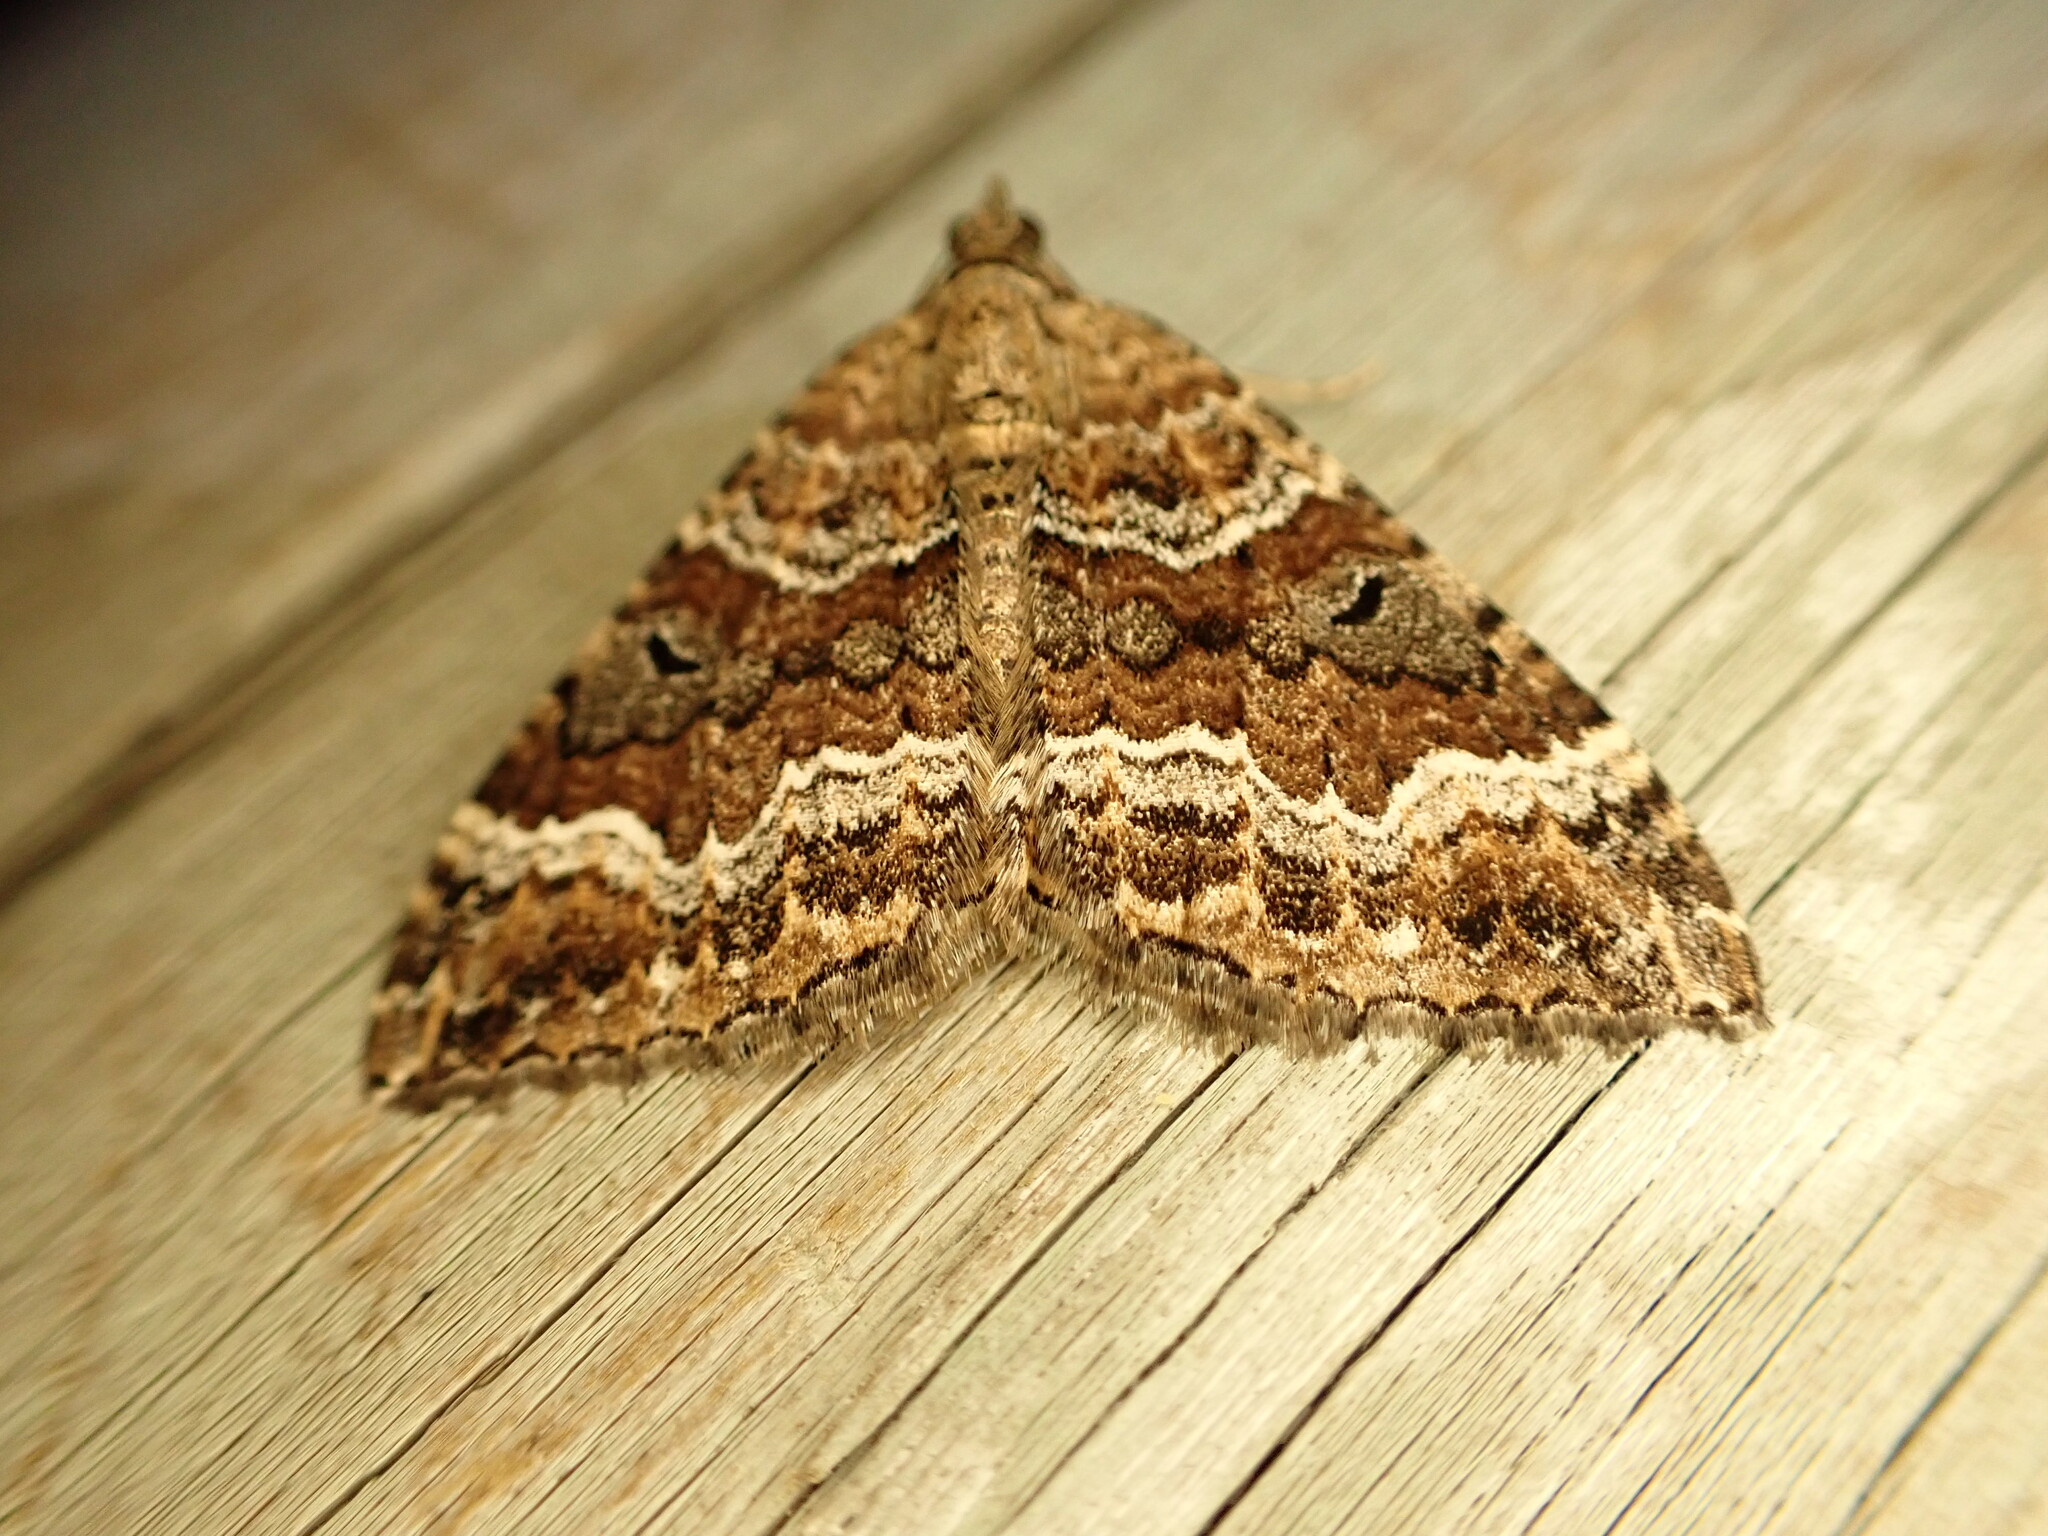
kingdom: Animalia
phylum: Arthropoda
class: Insecta
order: Lepidoptera
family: Geometridae
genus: Hydriomena
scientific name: Hydriomena deltoidata
